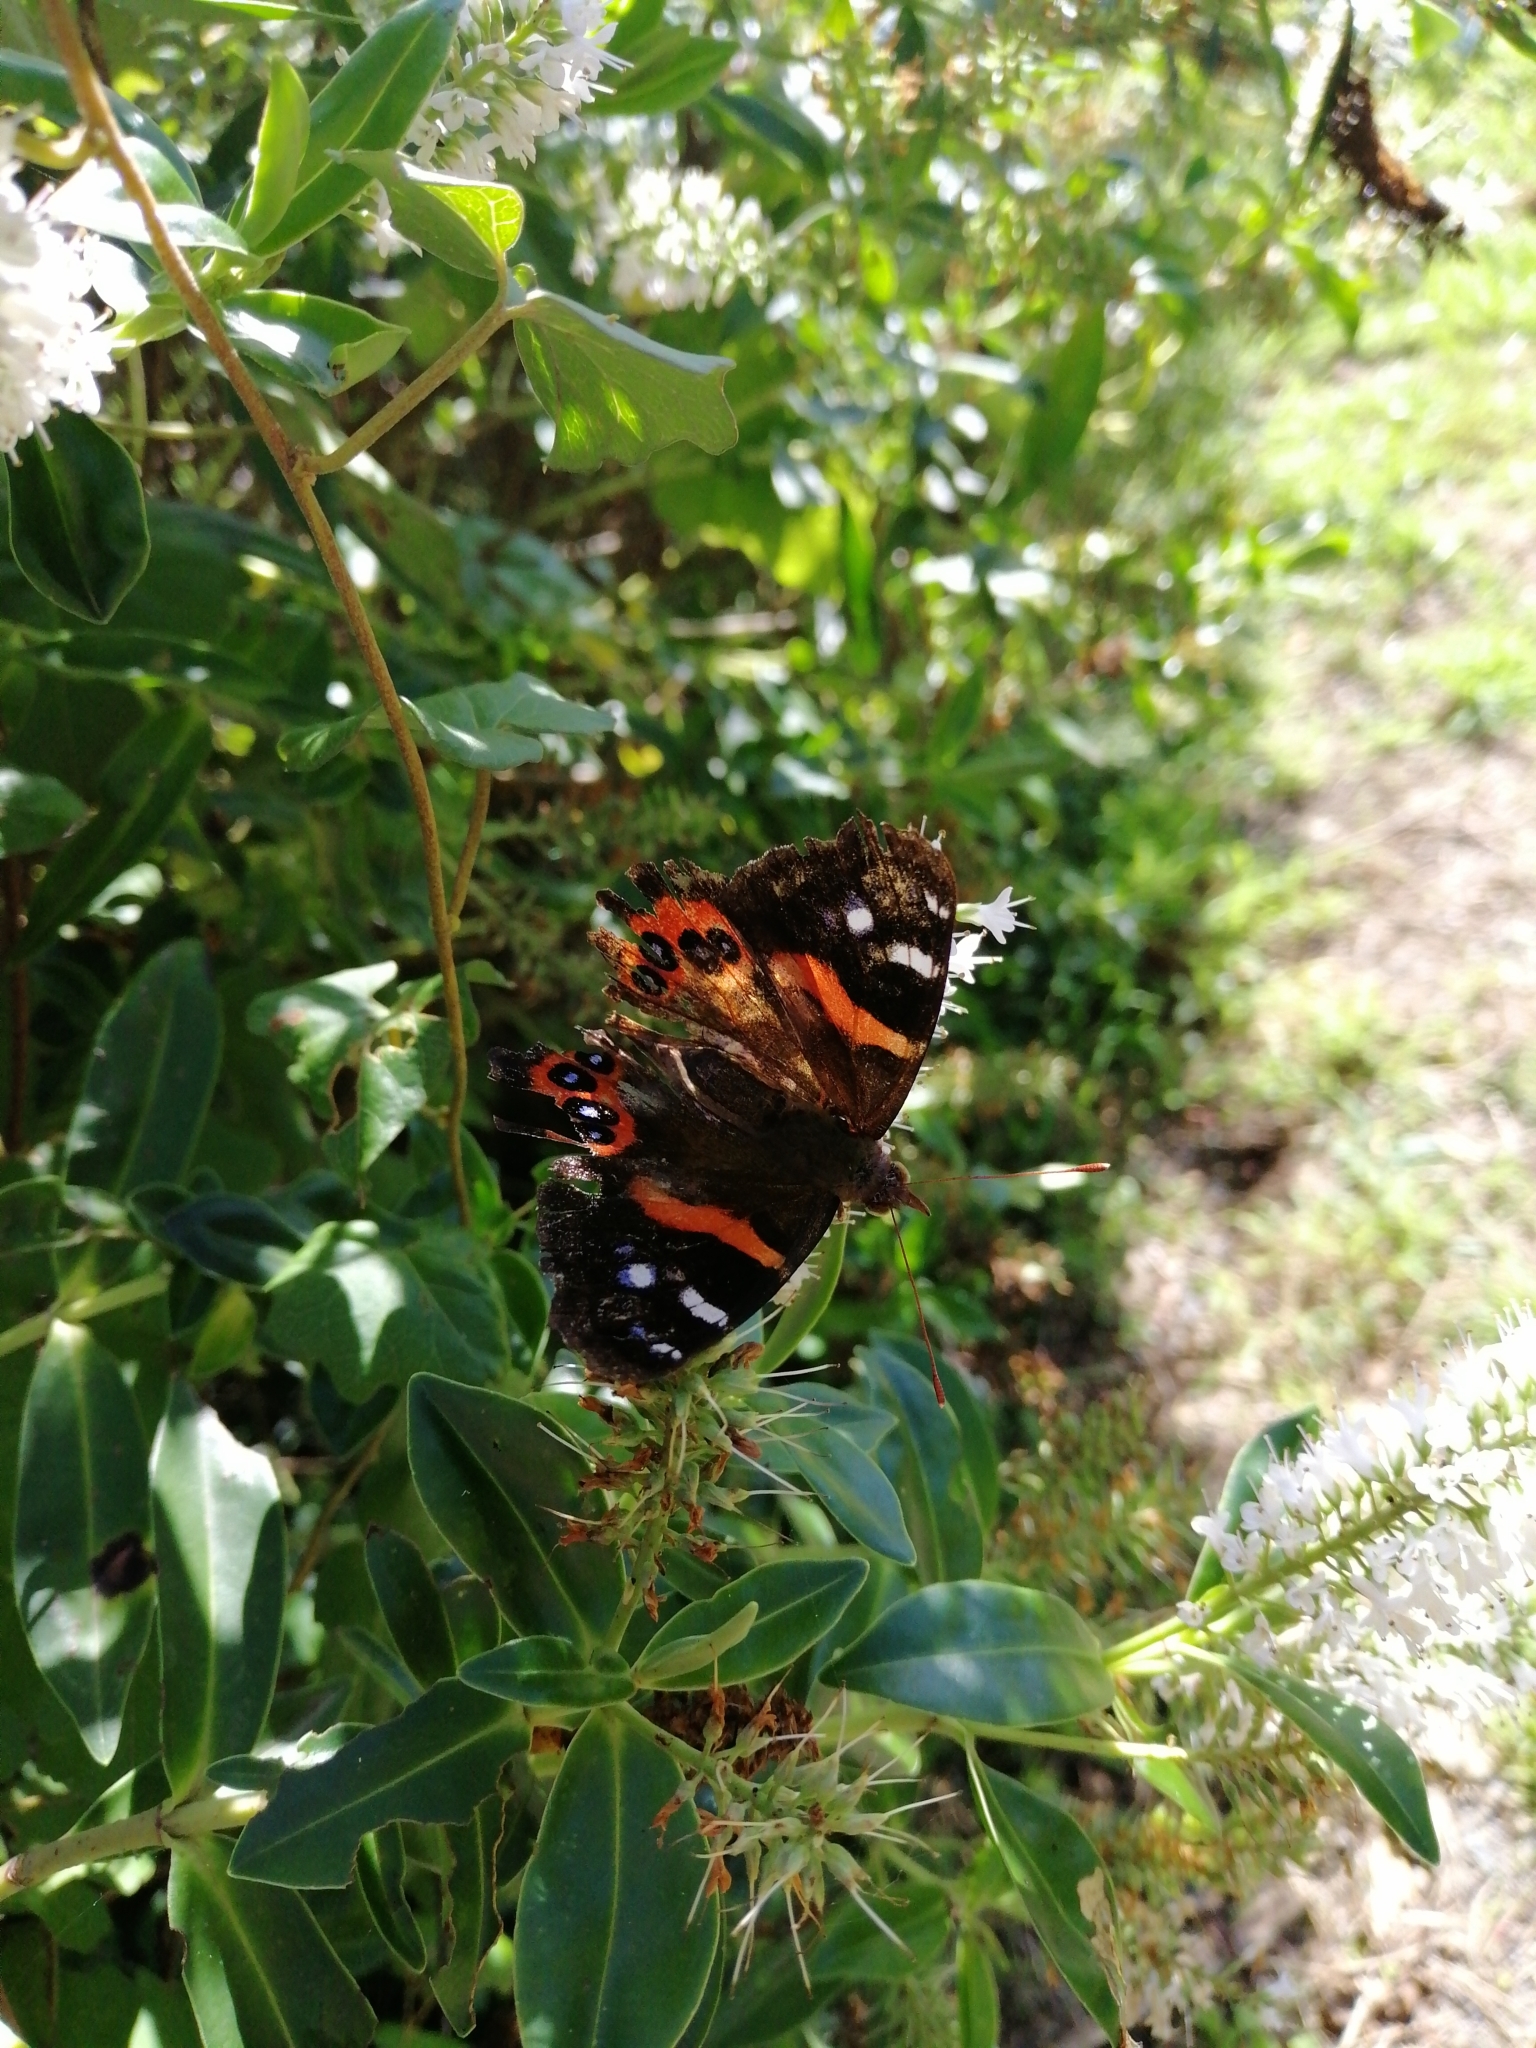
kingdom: Animalia
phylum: Arthropoda
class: Insecta
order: Lepidoptera
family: Nymphalidae
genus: Vanessa
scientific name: Vanessa gonerilla
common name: New zealand red admiral
